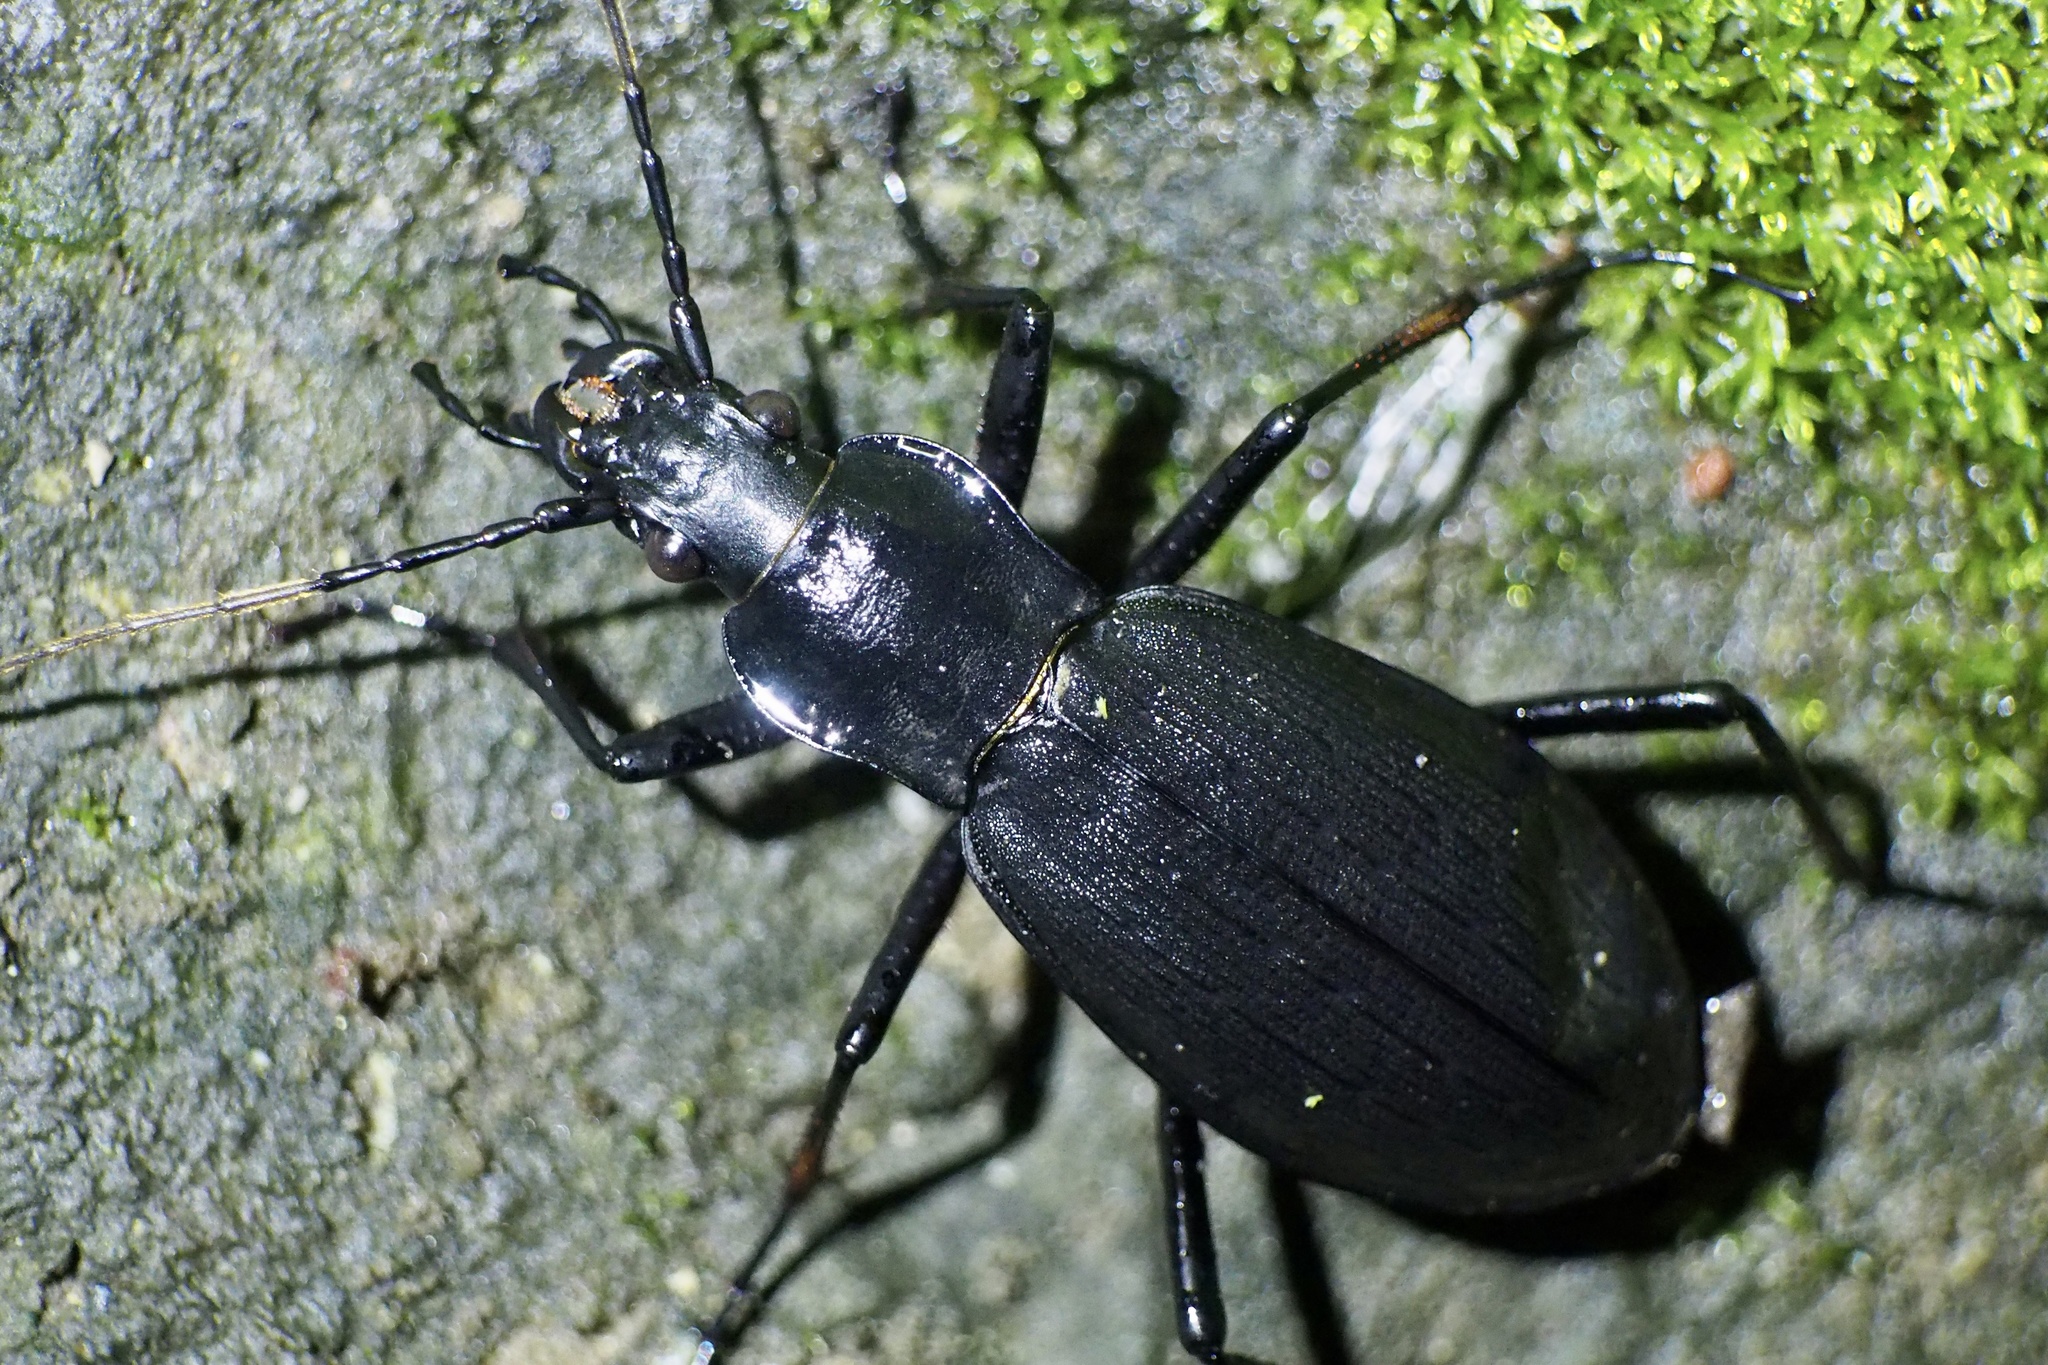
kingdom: Animalia
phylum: Arthropoda
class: Insecta
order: Coleoptera
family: Carabidae
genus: Carabus
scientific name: Carabus procerulus
